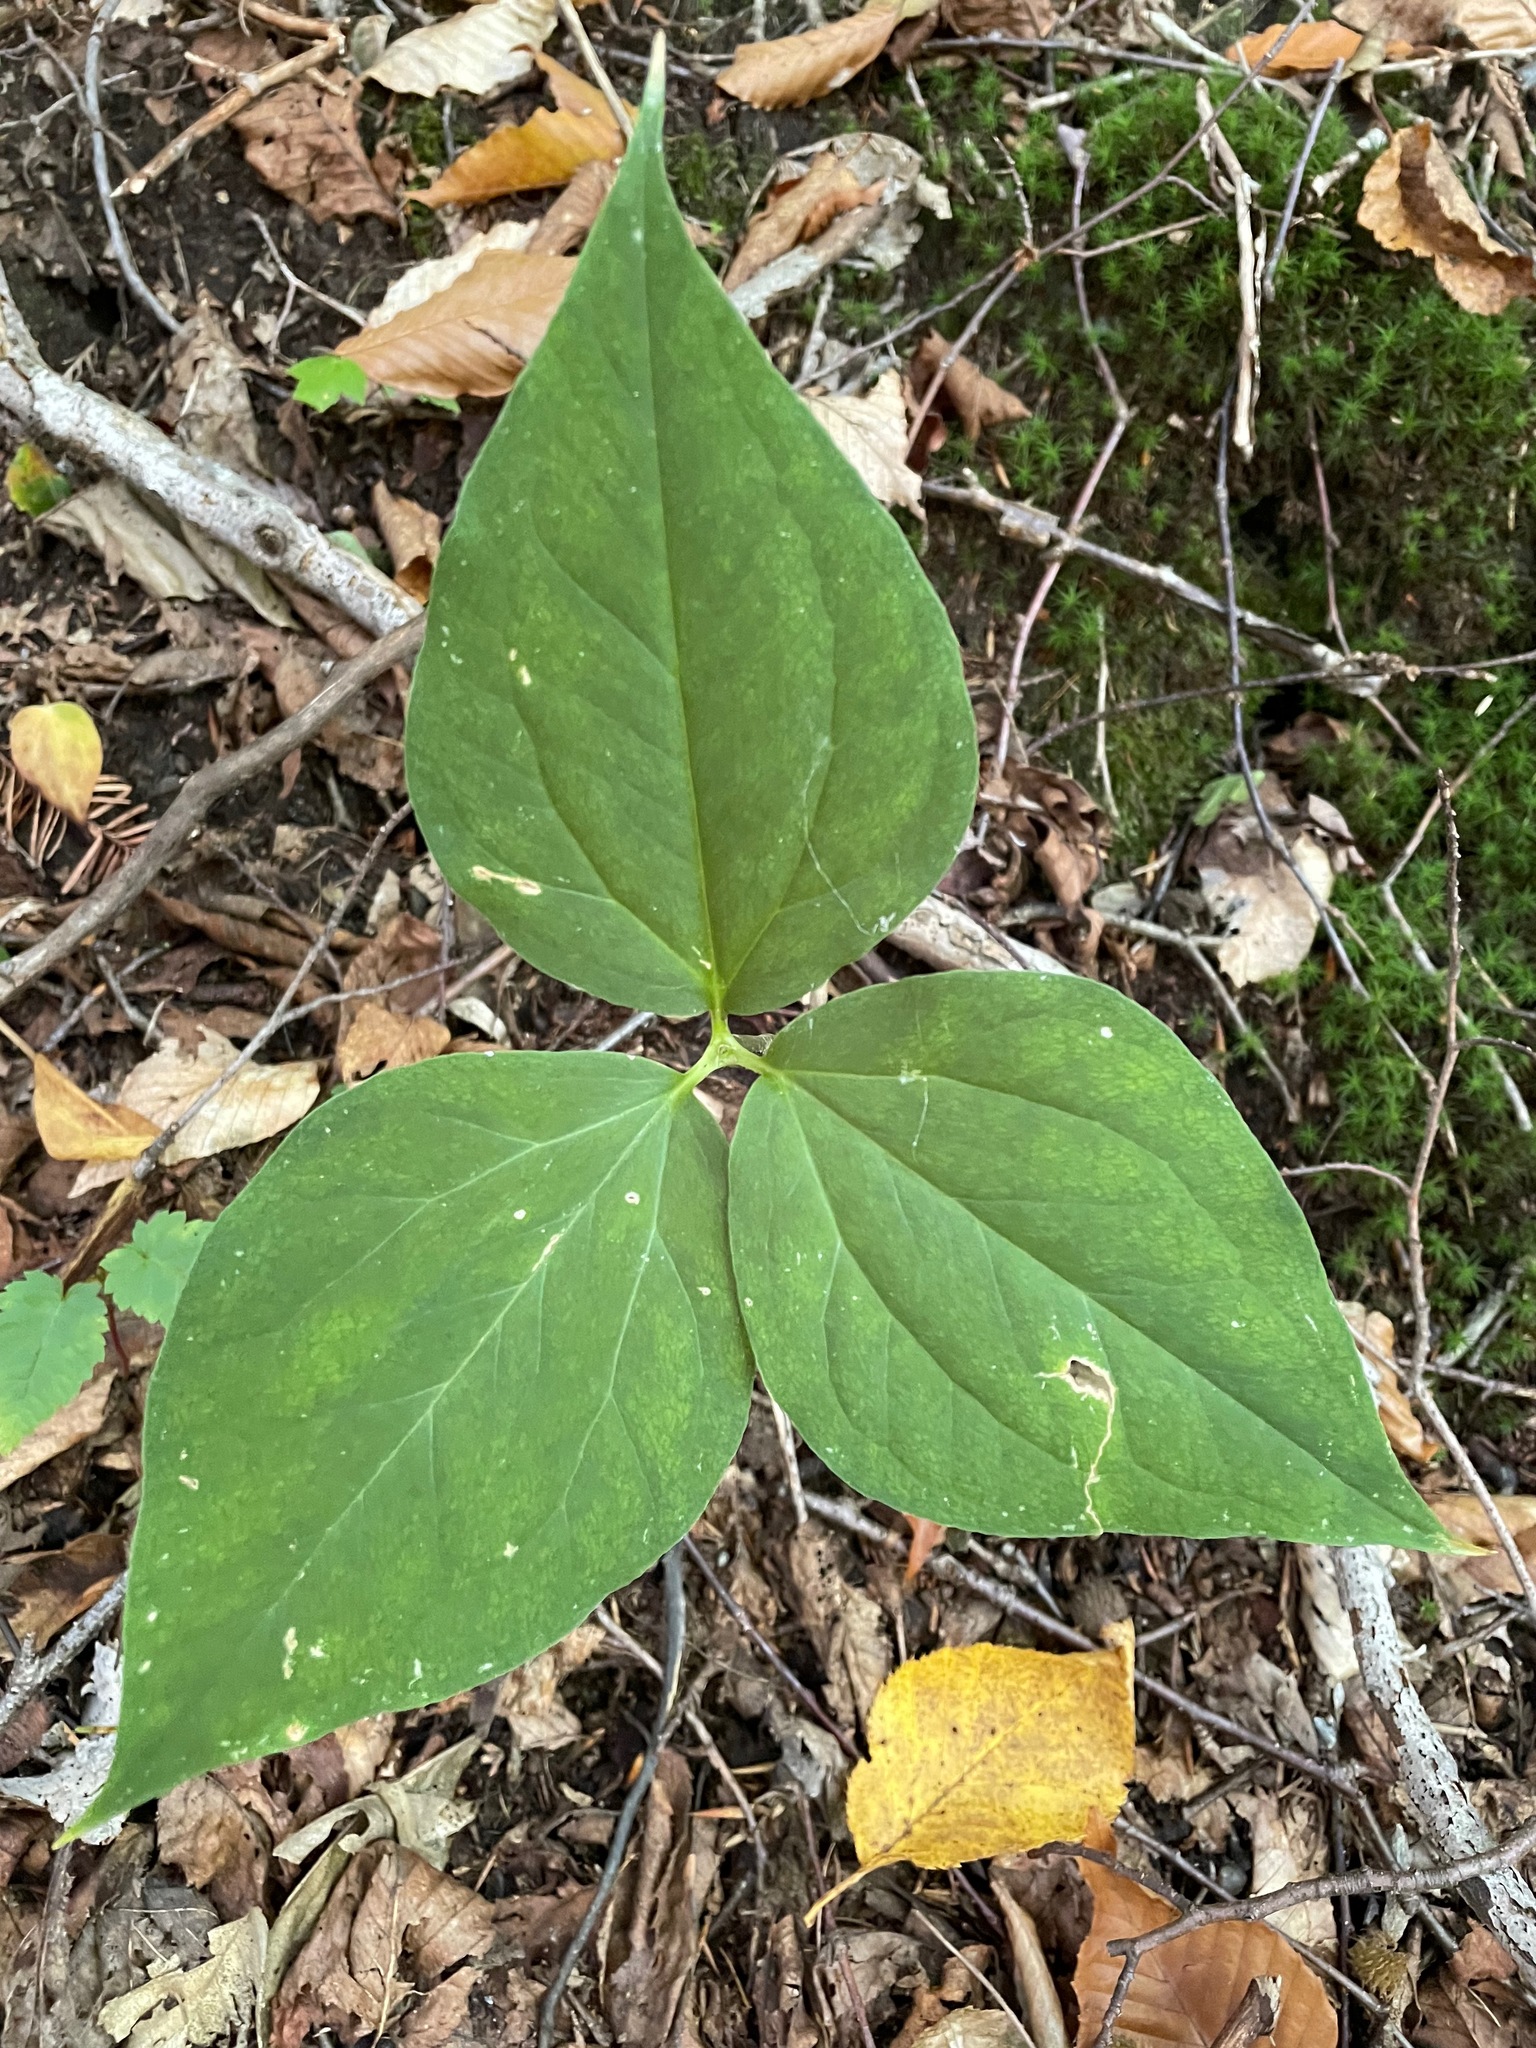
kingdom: Plantae
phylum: Tracheophyta
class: Liliopsida
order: Liliales
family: Melanthiaceae
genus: Trillium
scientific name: Trillium undulatum
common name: Paint trillium
